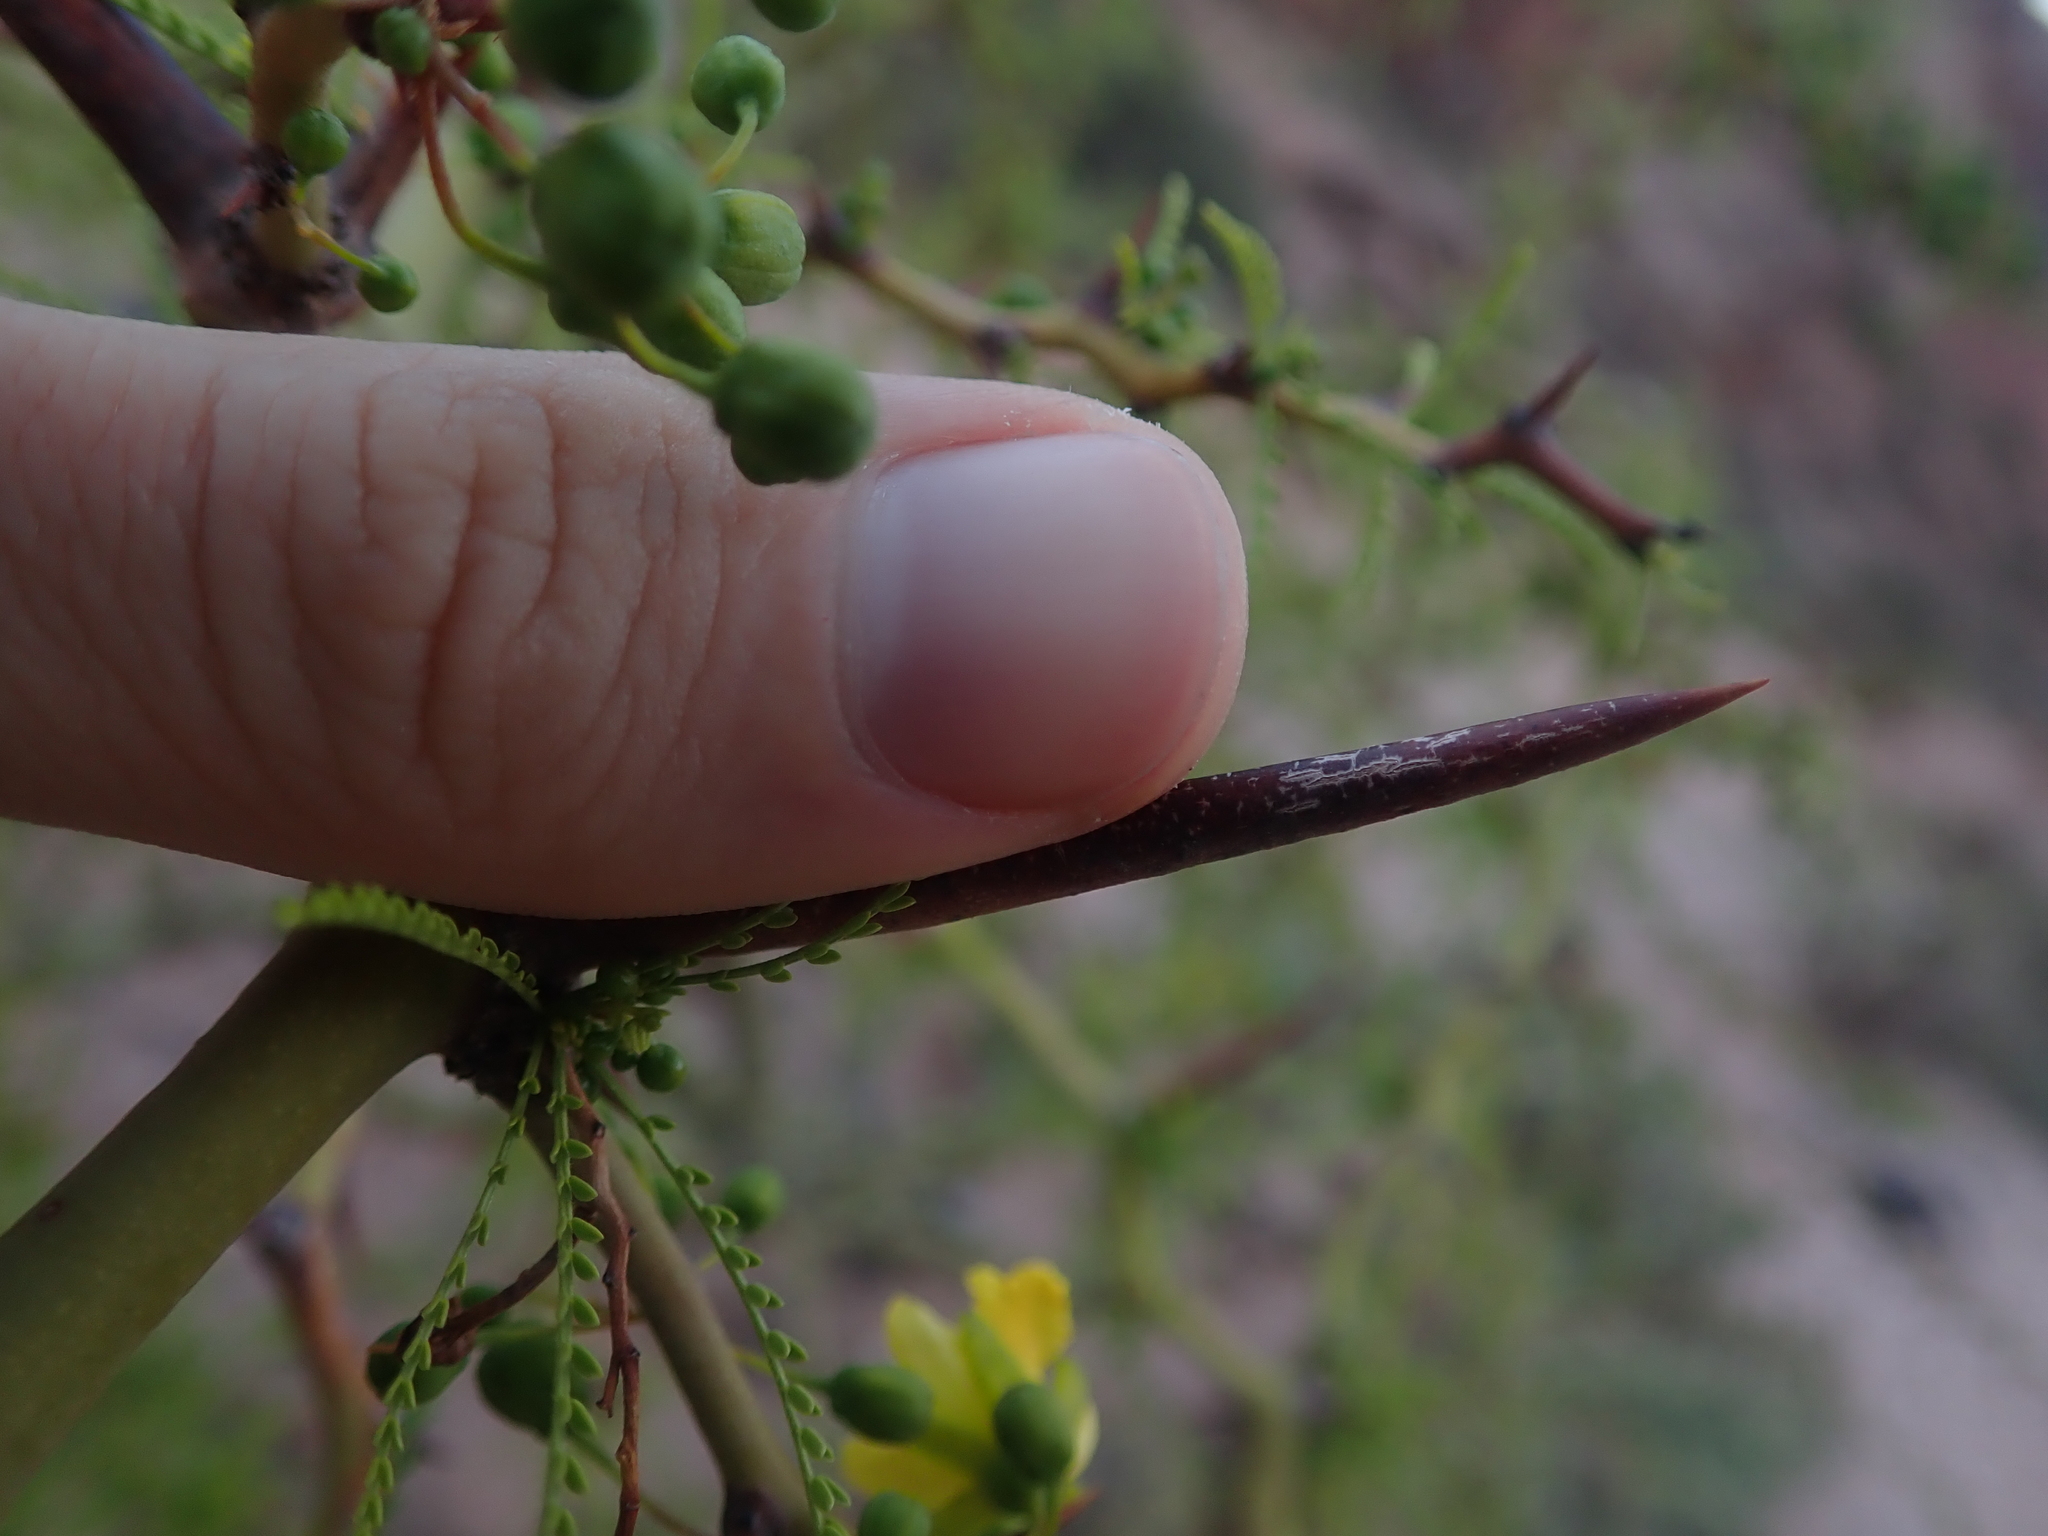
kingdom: Plantae
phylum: Tracheophyta
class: Magnoliopsida
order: Fabales
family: Fabaceae
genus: Parkinsonia
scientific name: Parkinsonia andicola
